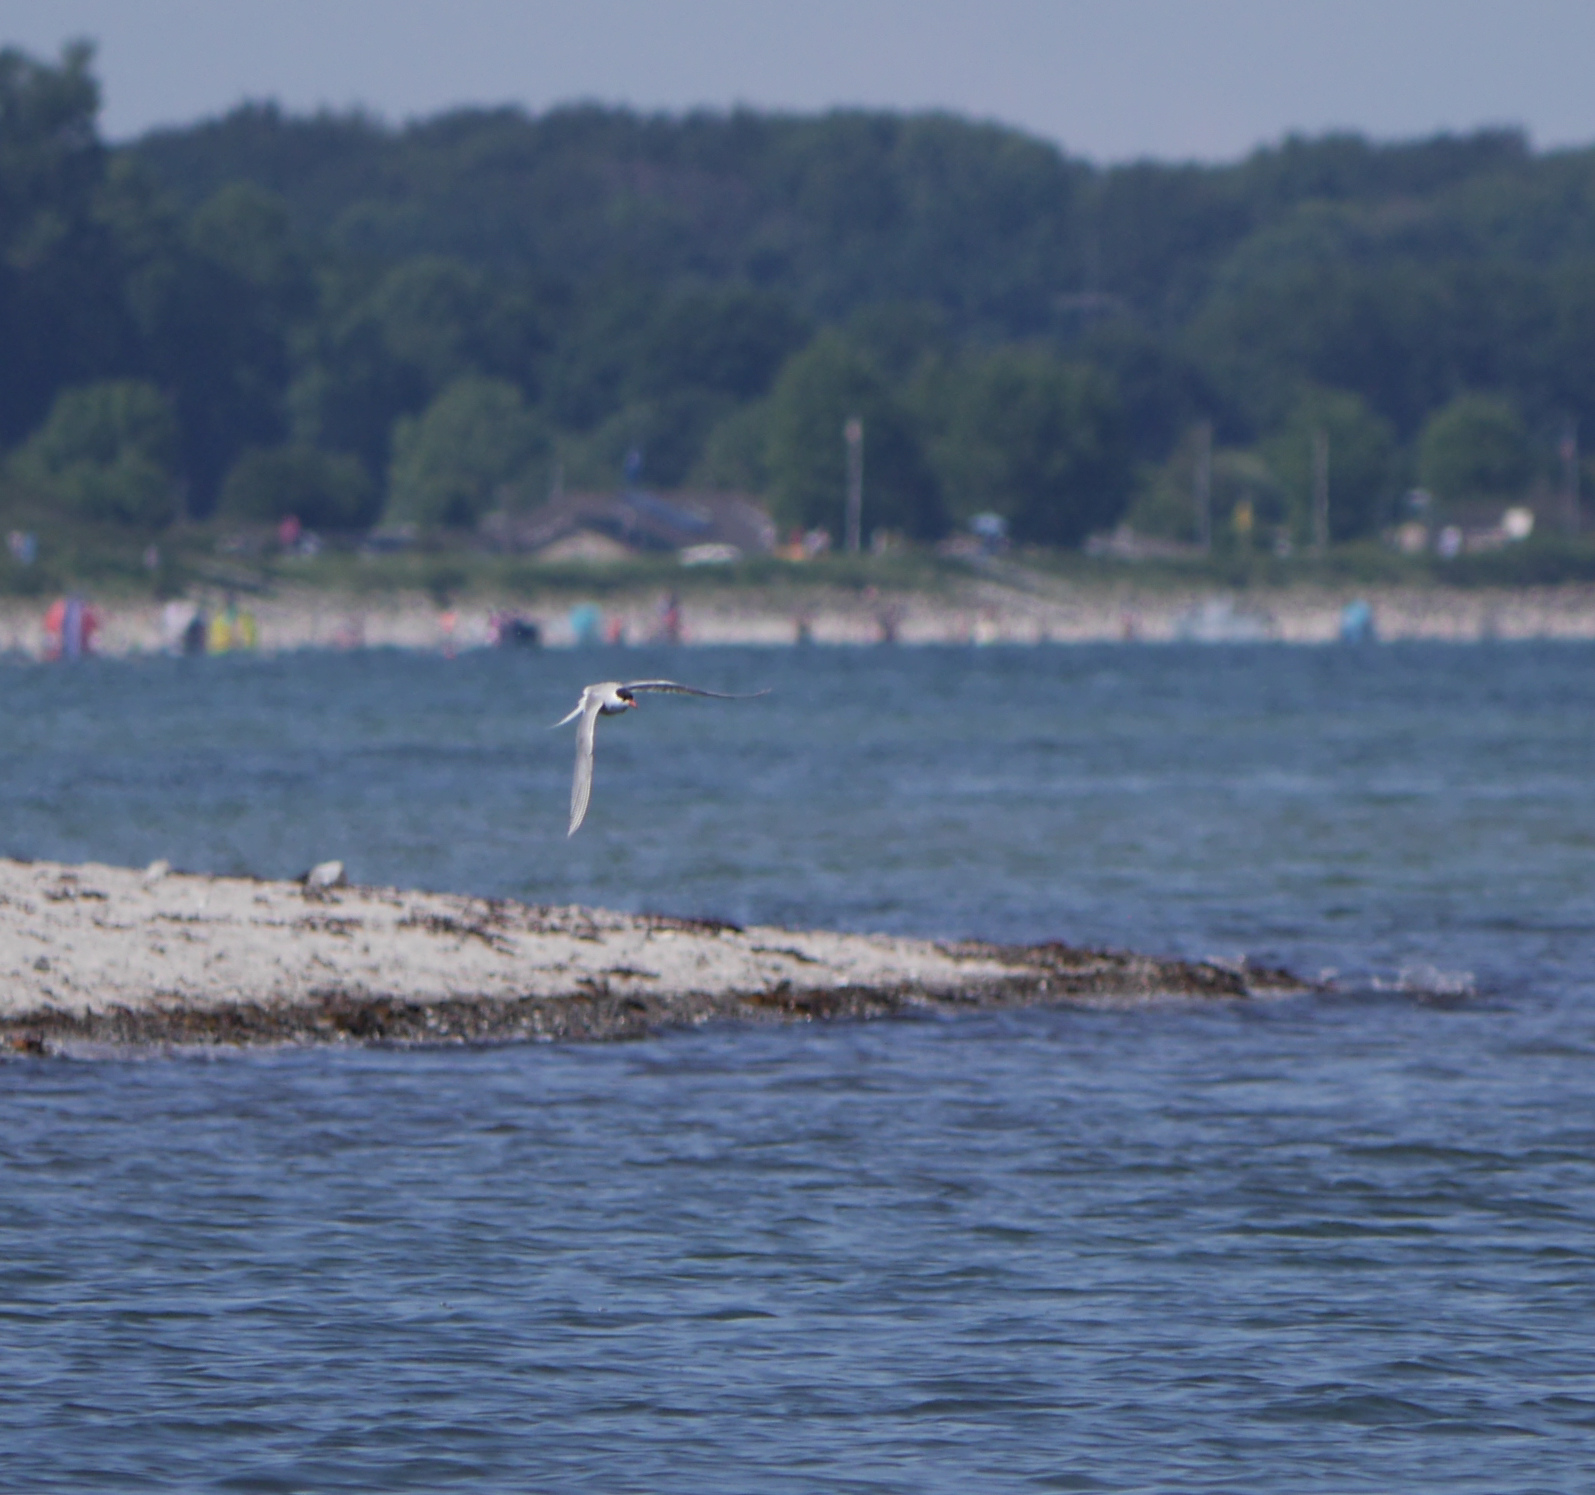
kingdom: Animalia
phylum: Chordata
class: Aves
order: Charadriiformes
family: Laridae
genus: Sterna
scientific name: Sterna hirundo
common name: Common tern
